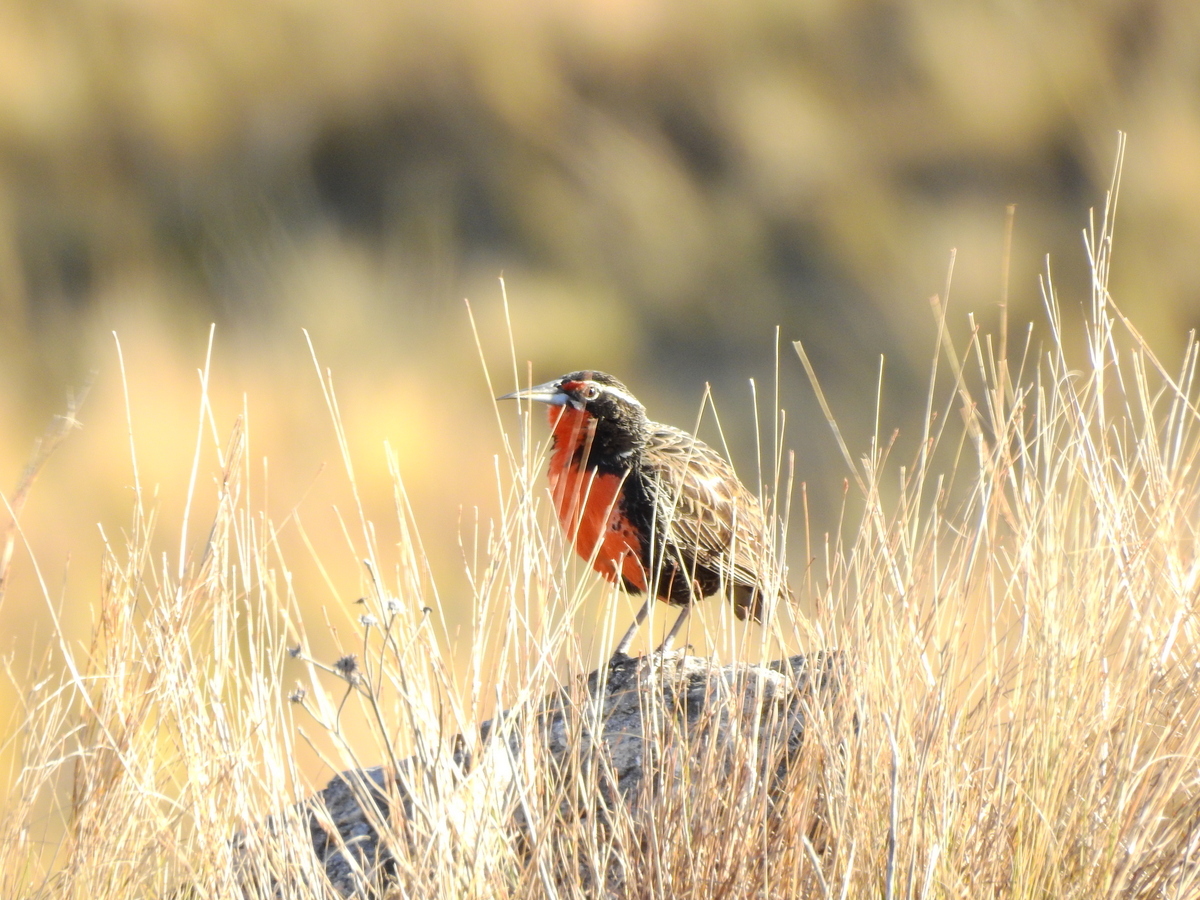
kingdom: Animalia
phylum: Chordata
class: Aves
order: Passeriformes
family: Icteridae
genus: Sturnella
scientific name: Sturnella loyca
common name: Long-tailed meadowlark
